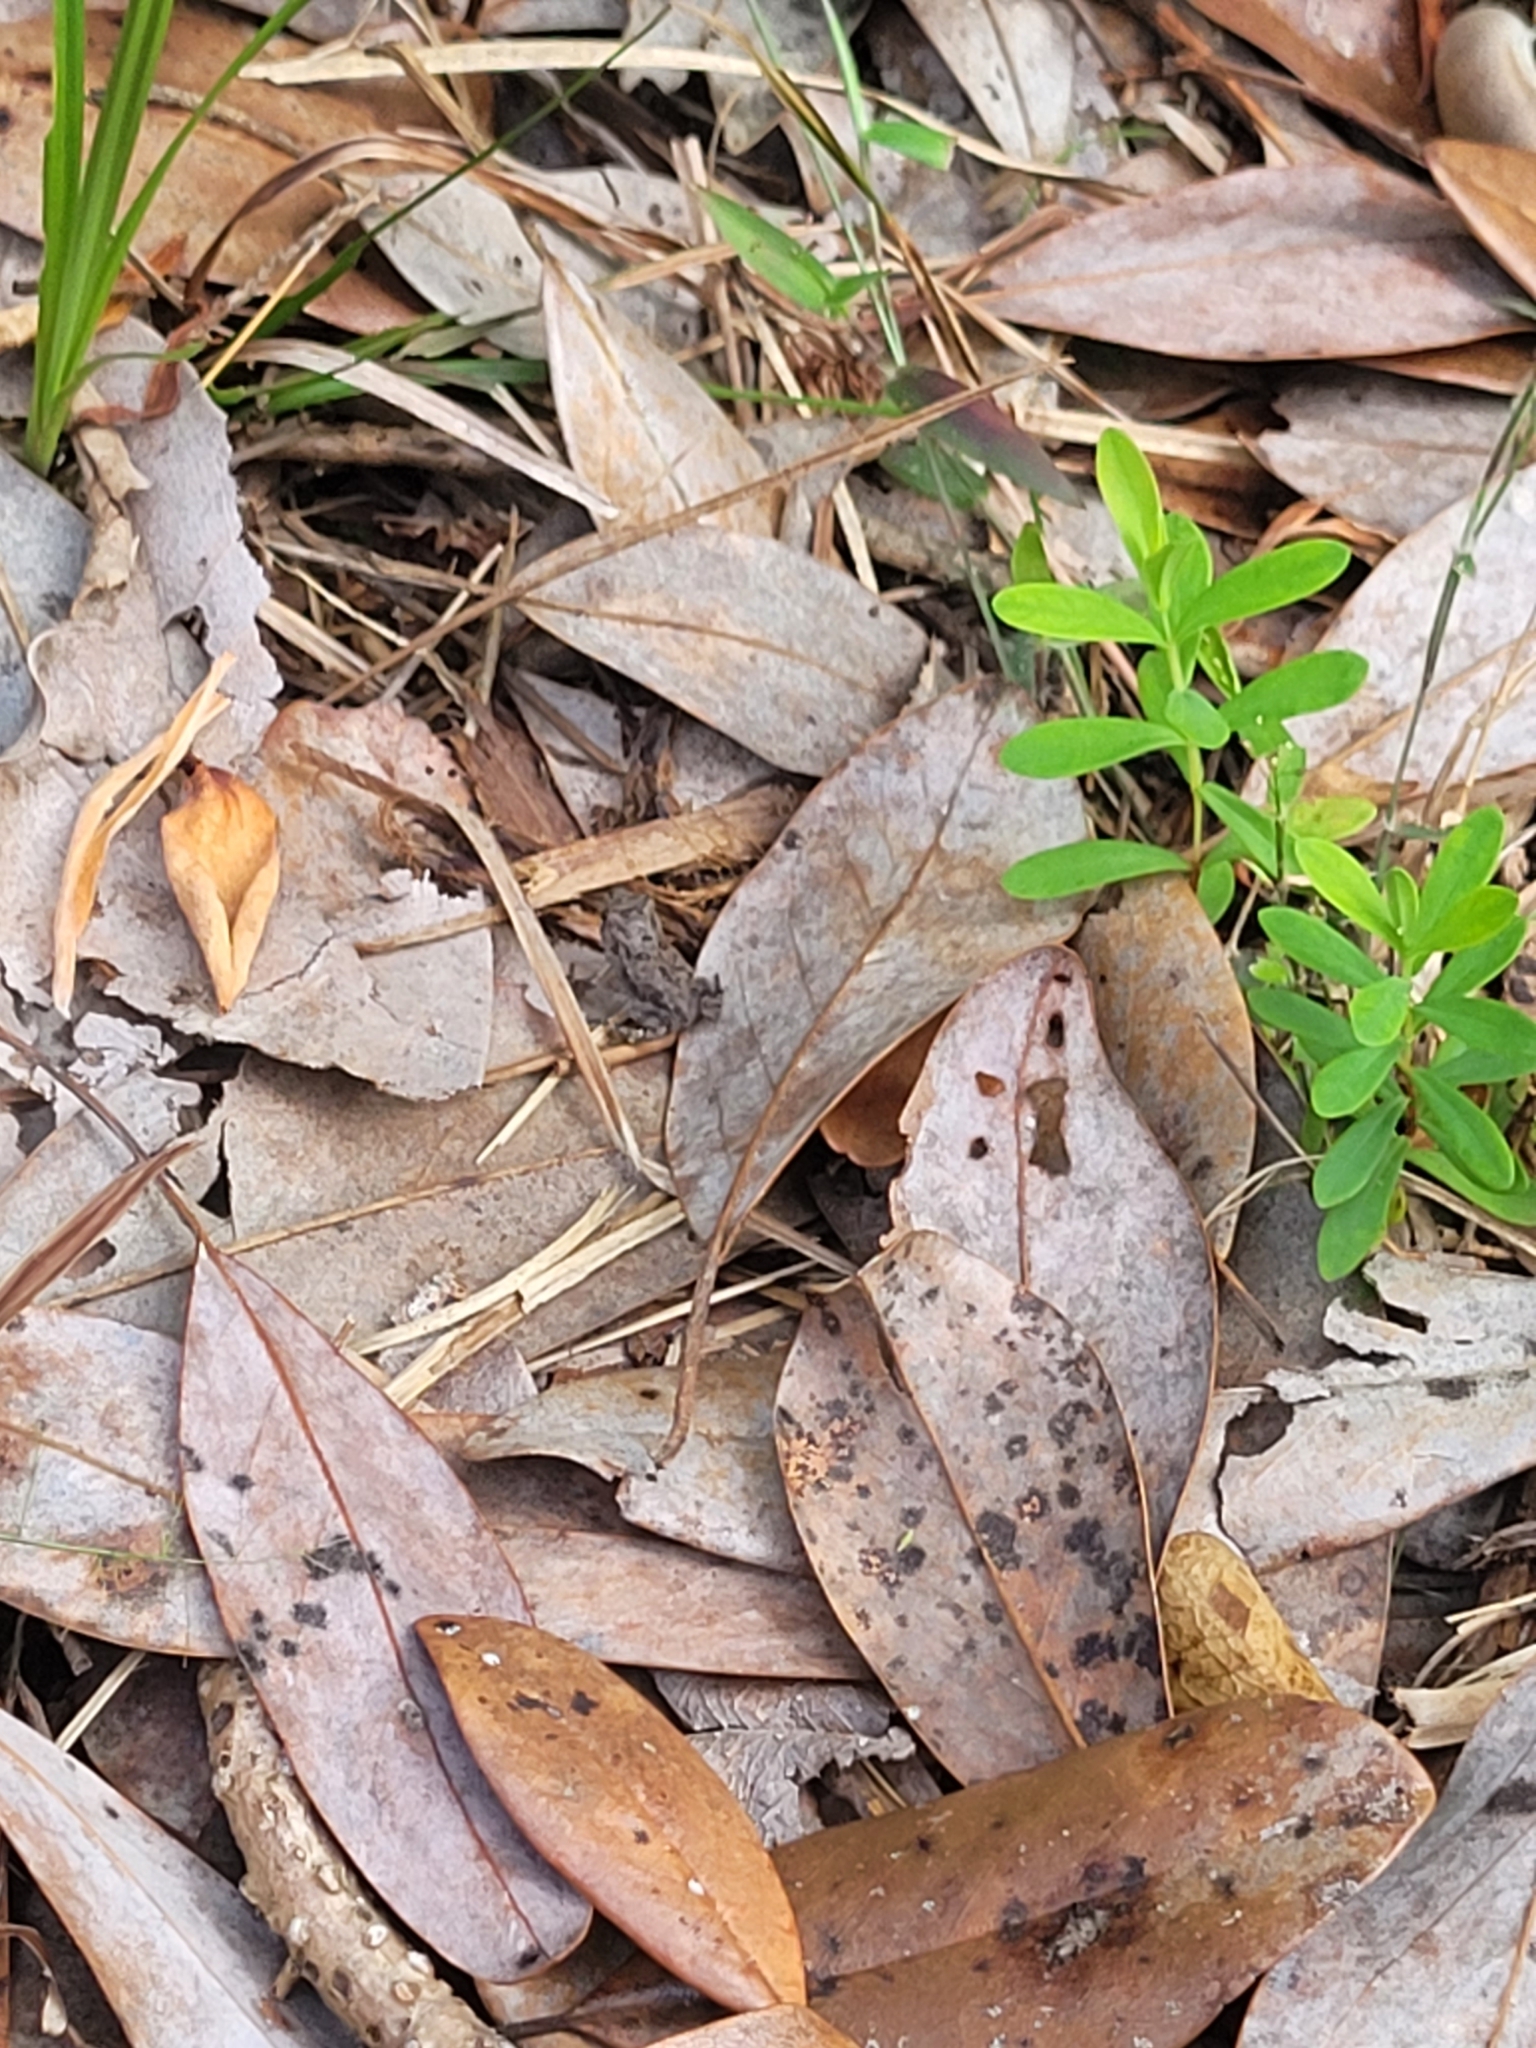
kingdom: Animalia
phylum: Chordata
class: Amphibia
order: Anura
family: Bufonidae
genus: Anaxyrus
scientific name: Anaxyrus terrestris
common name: Southern toad
